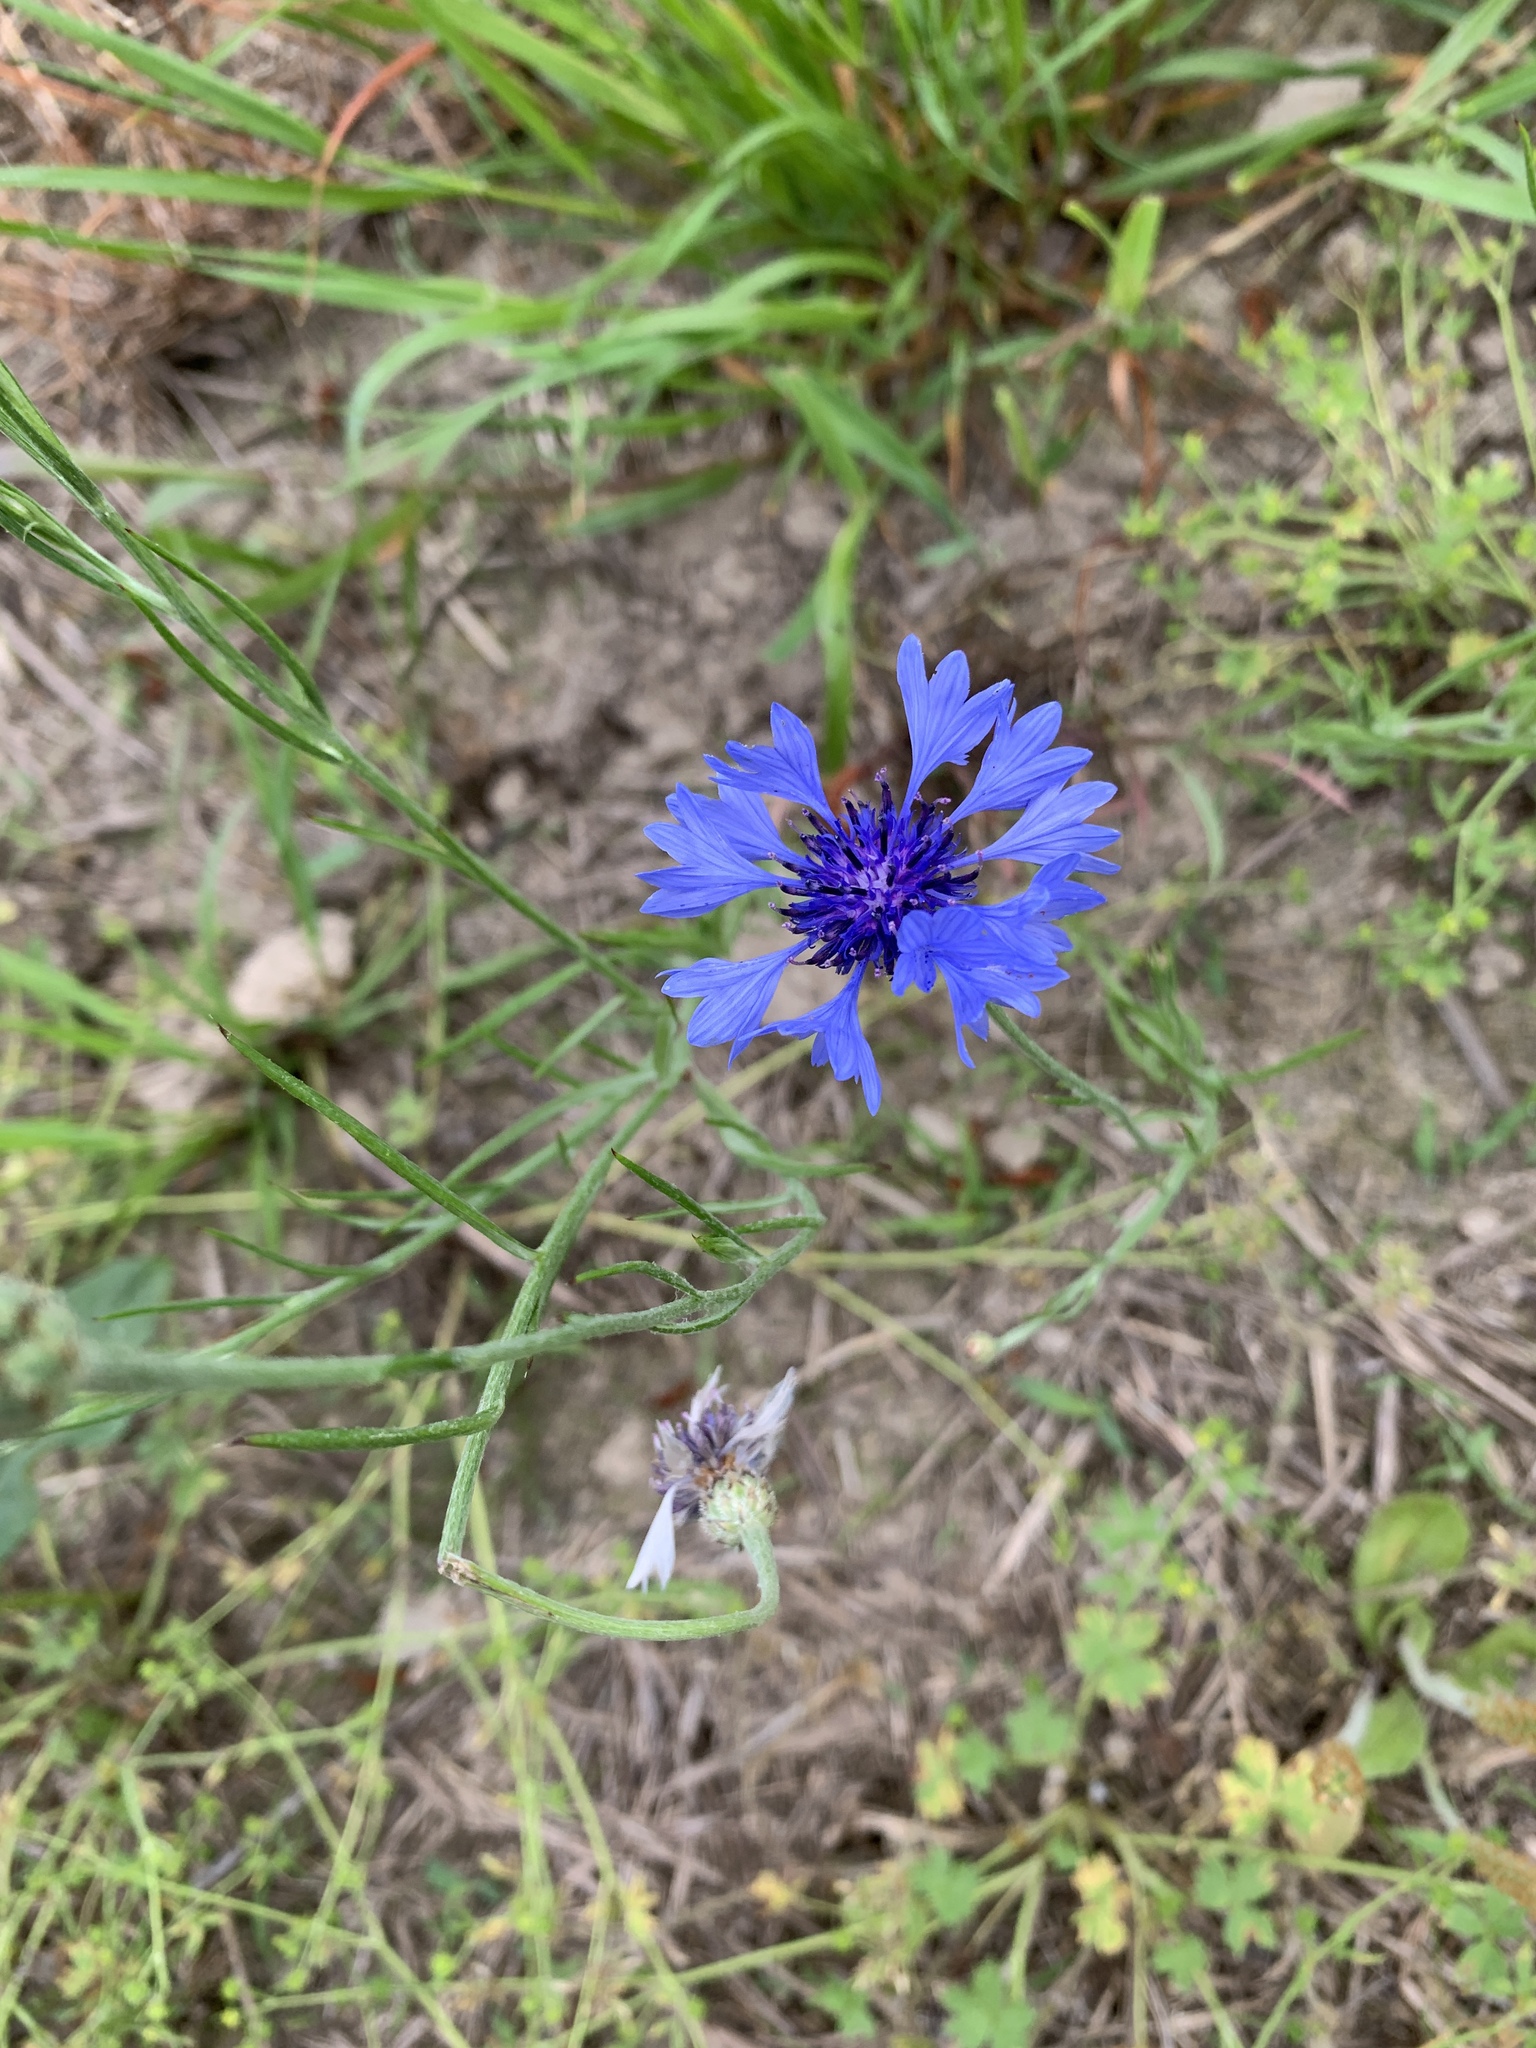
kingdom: Plantae
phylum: Tracheophyta
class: Magnoliopsida
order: Asterales
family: Asteraceae
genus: Centaurea
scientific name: Centaurea cyanus
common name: Cornflower
